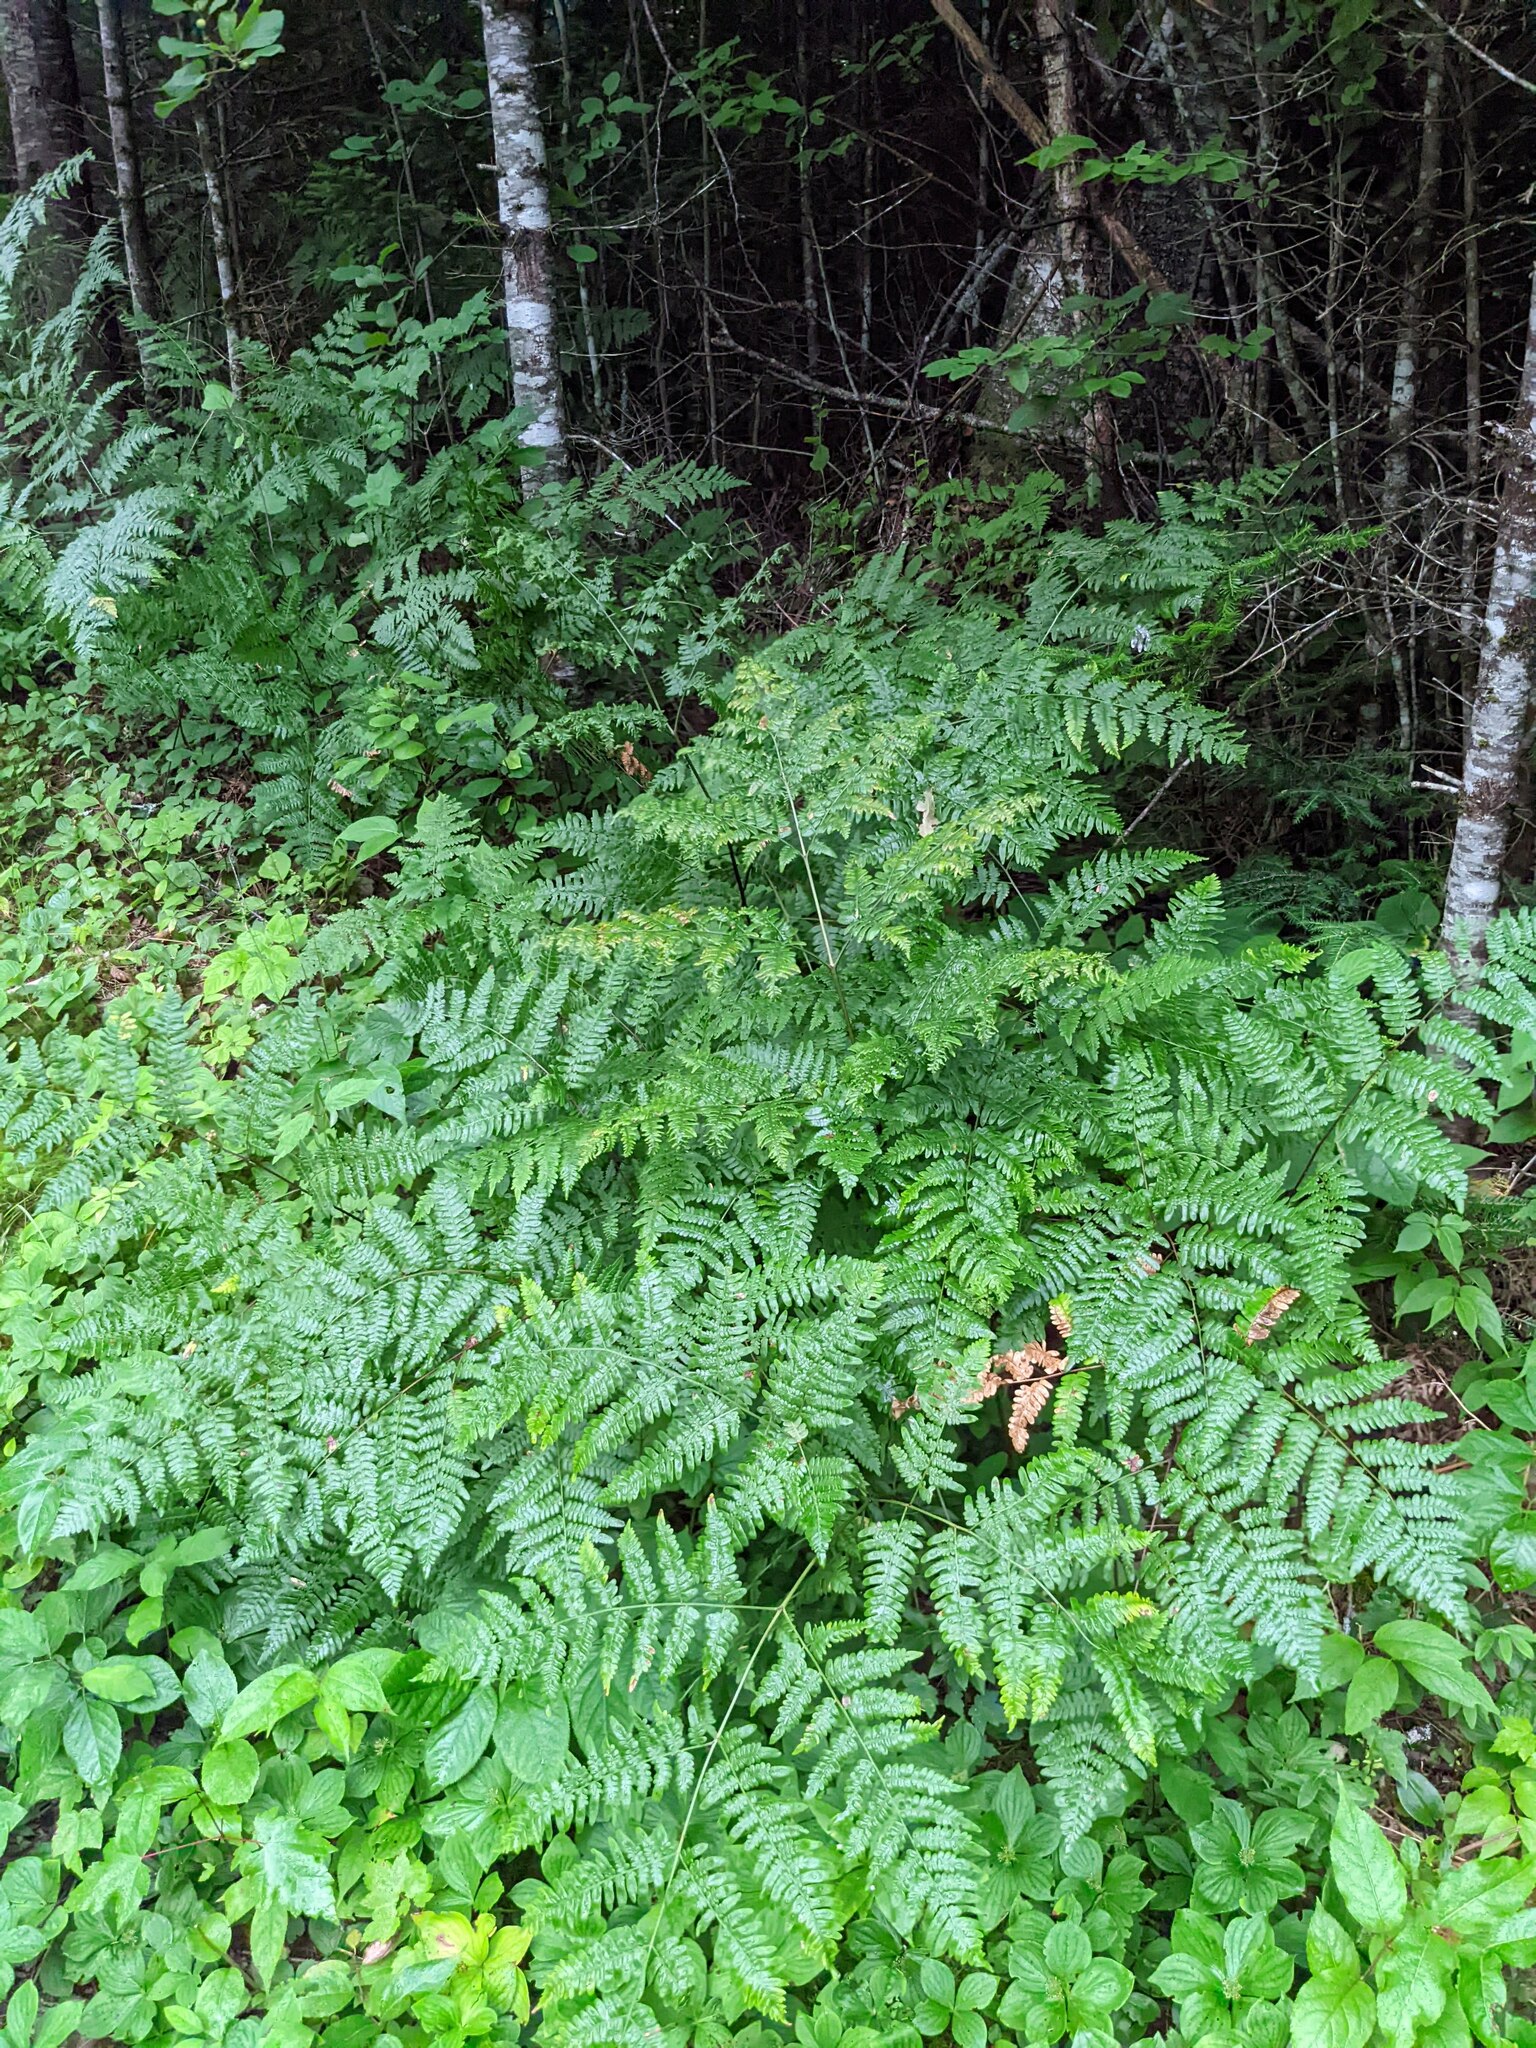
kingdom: Plantae
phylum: Tracheophyta
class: Polypodiopsida
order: Polypodiales
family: Dennstaedtiaceae
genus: Pteridium
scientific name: Pteridium aquilinum
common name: Bracken
